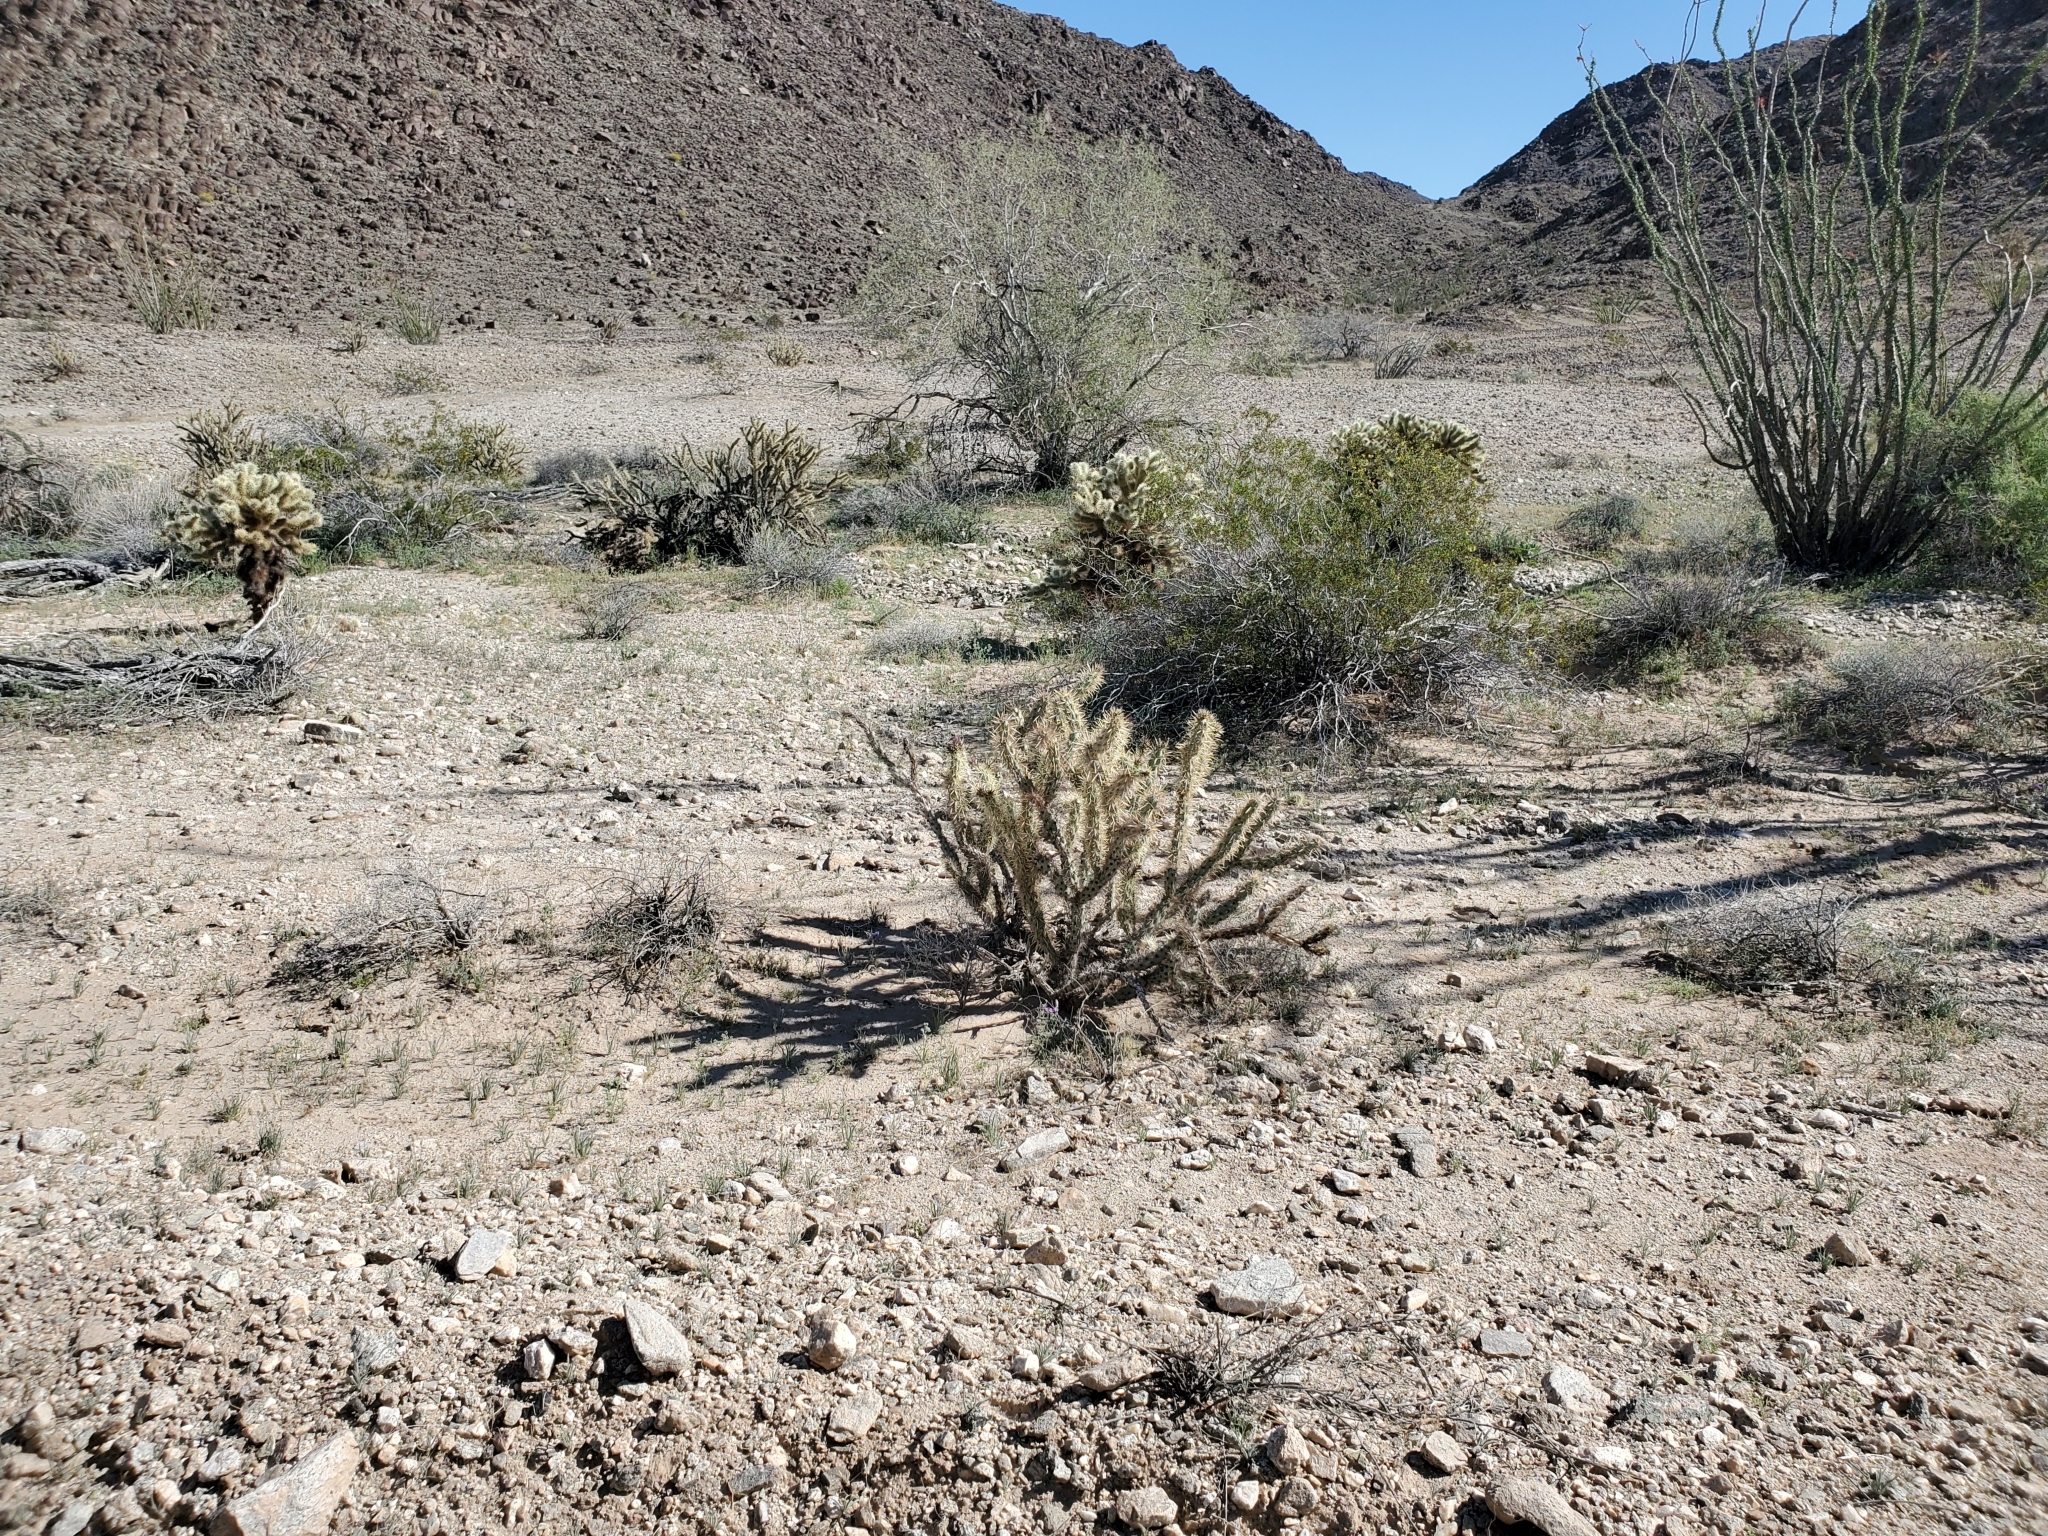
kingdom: Plantae
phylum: Tracheophyta
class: Magnoliopsida
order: Caryophyllales
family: Cactaceae
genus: Cylindropuntia
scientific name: Cylindropuntia acanthocarpa
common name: Buckhorn cholla
